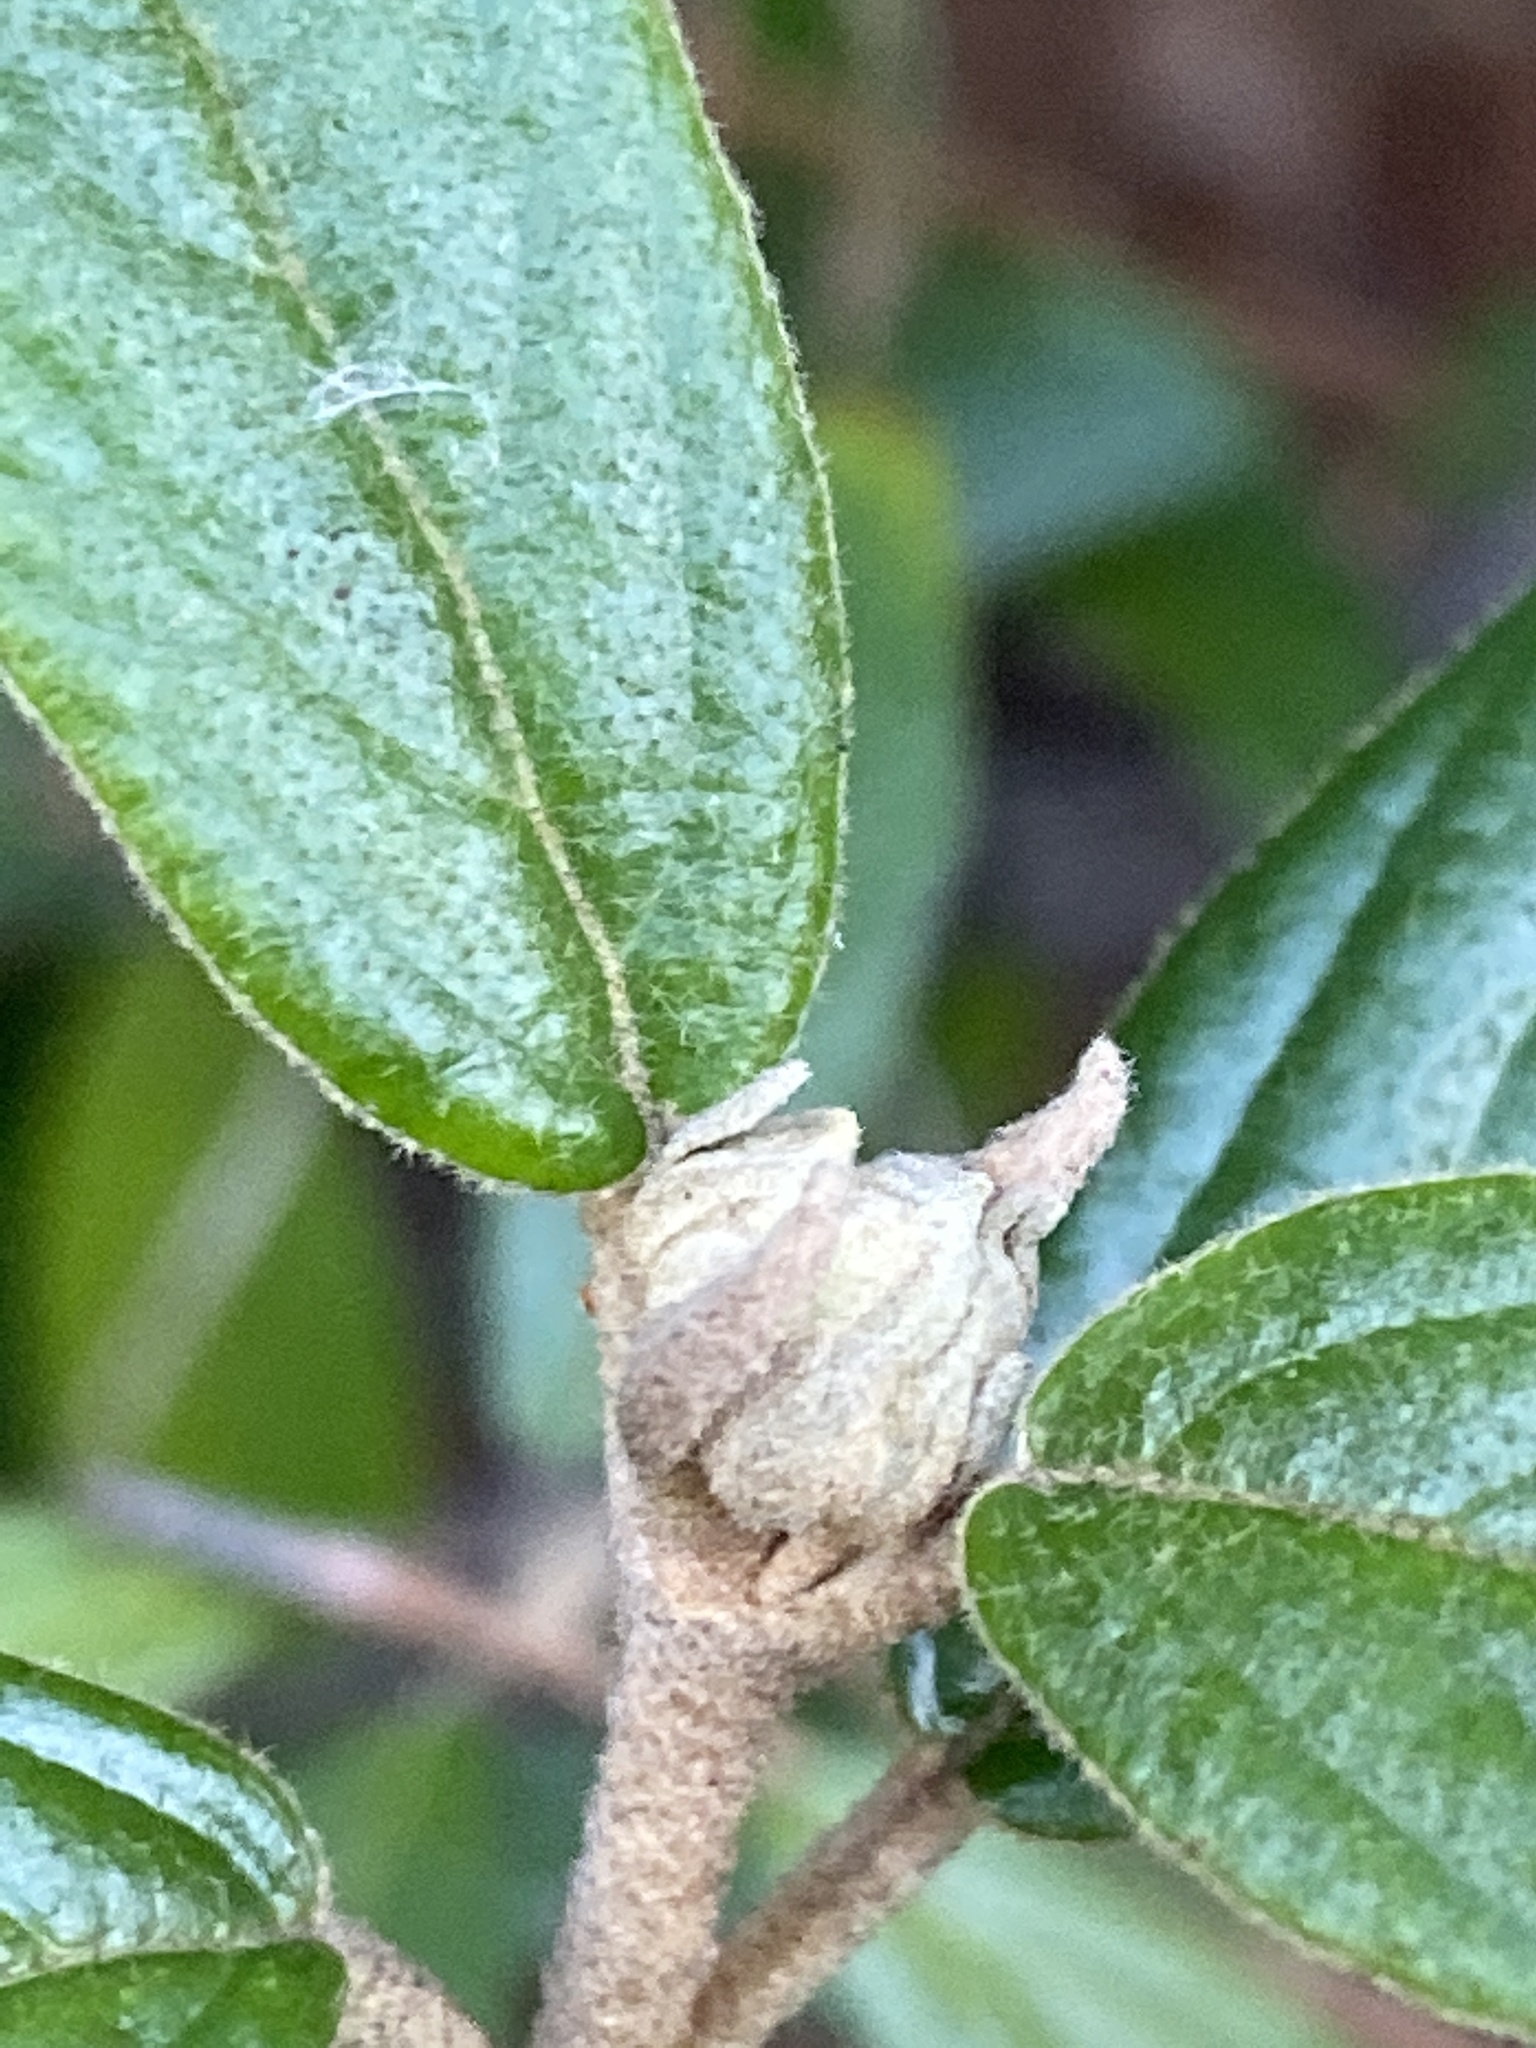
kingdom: Plantae
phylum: Tracheophyta
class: Magnoliopsida
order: Dipsacales
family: Viburnaceae
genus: Viburnum
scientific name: Viburnum rhytidophyllum
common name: Wrinkled viburnum
